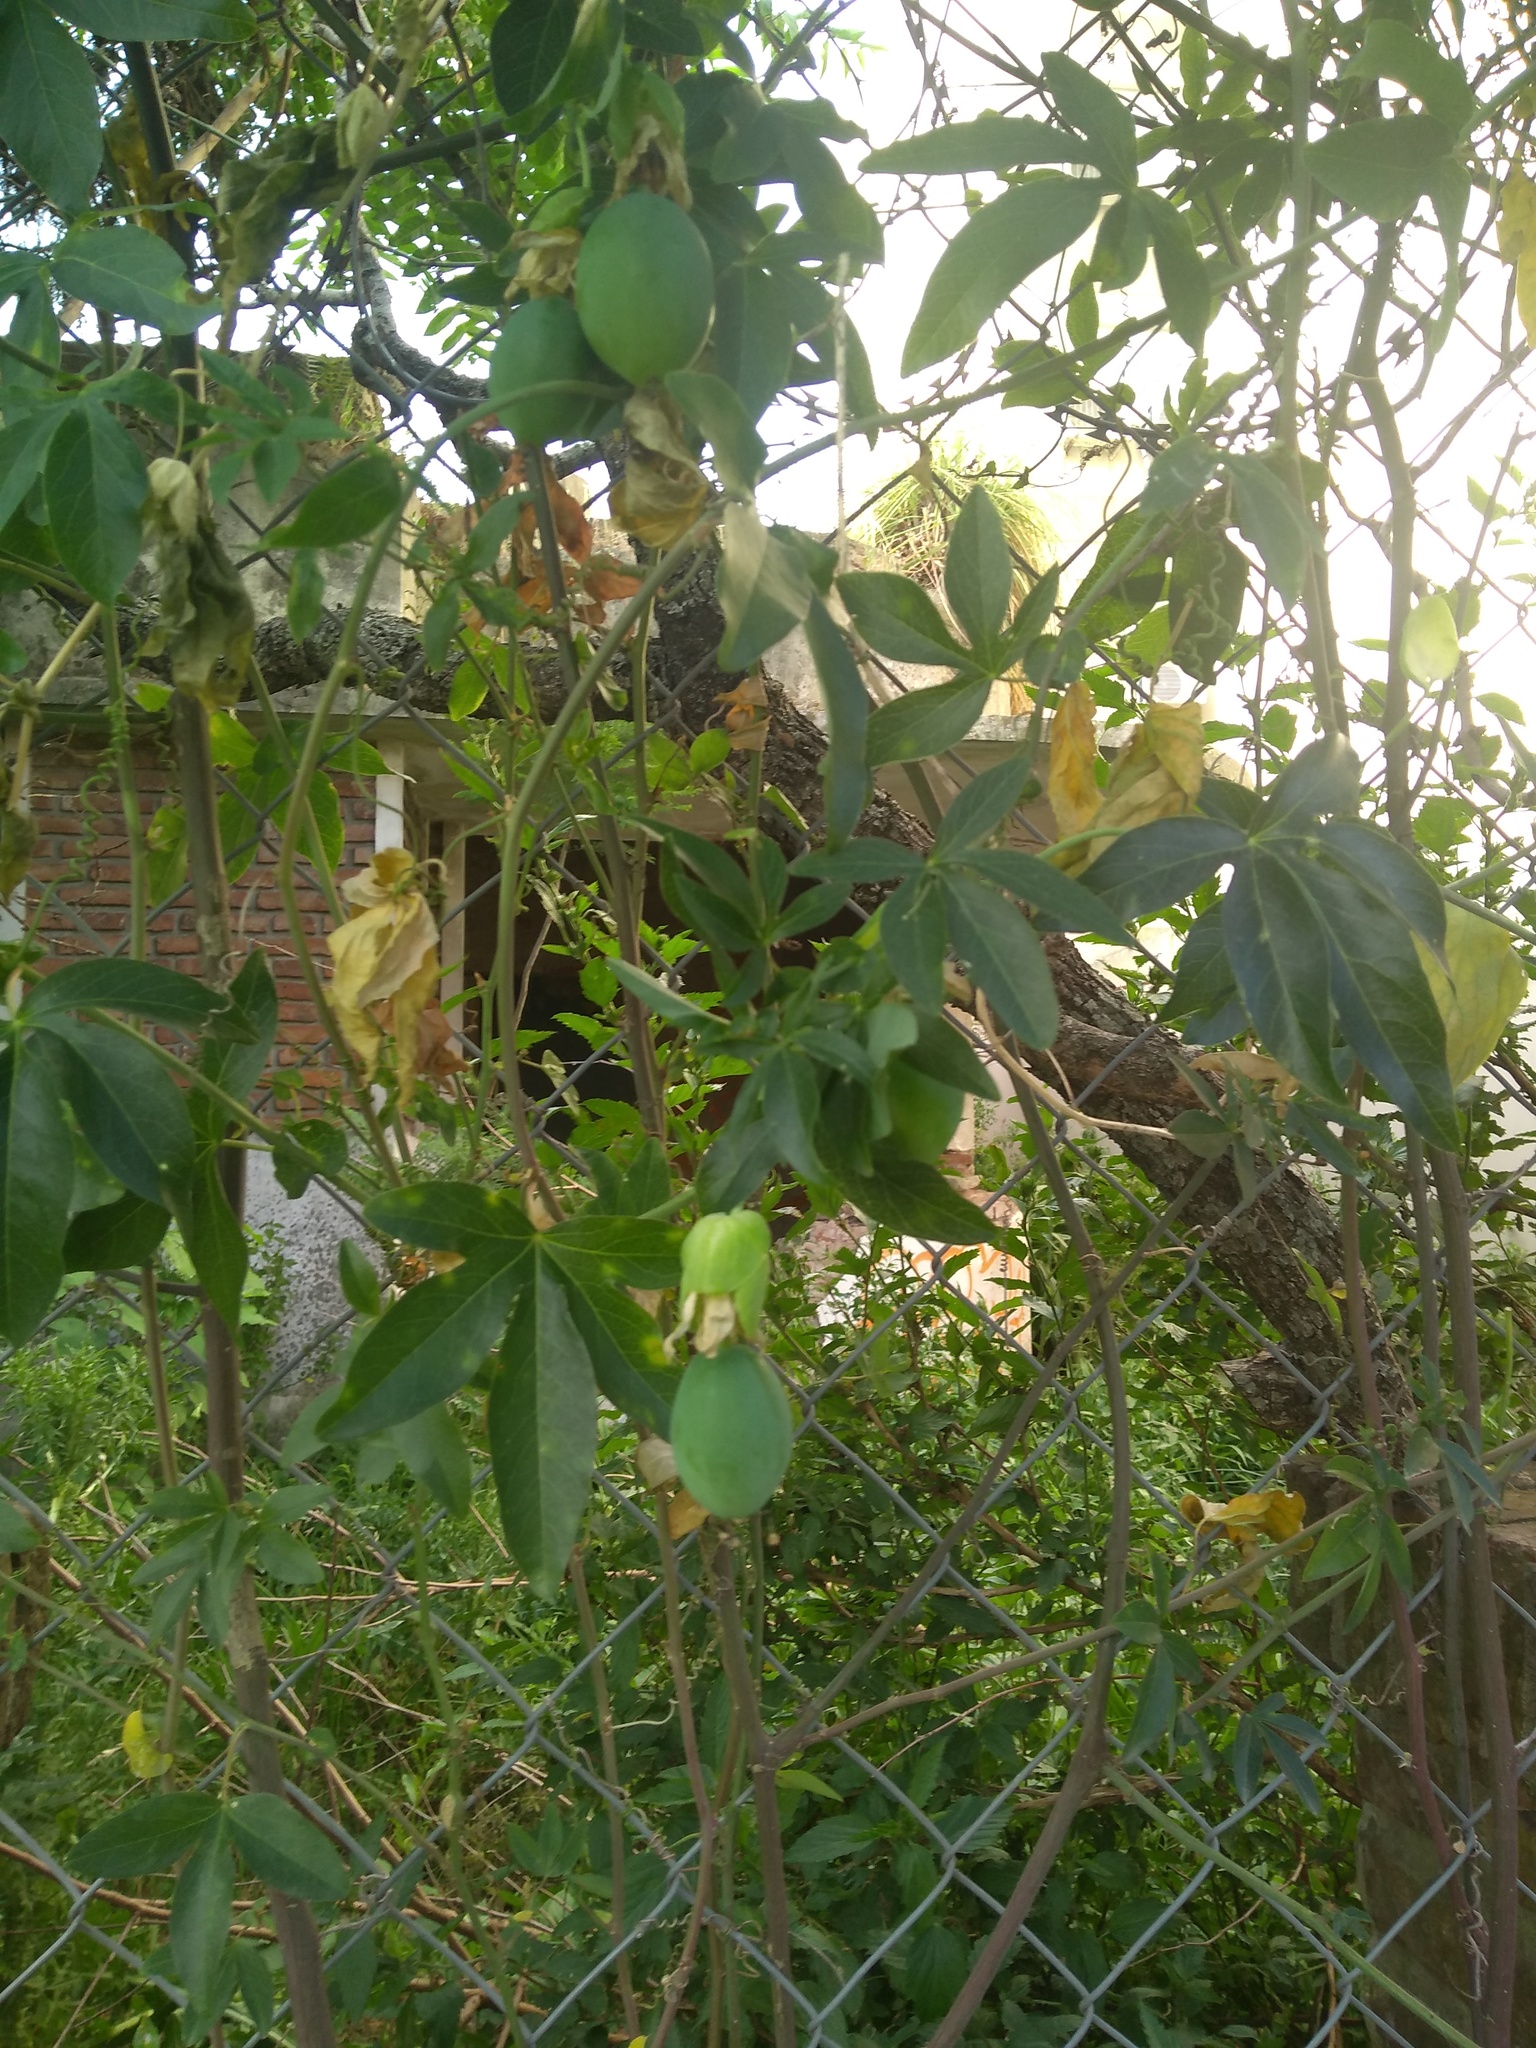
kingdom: Plantae
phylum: Tracheophyta
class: Magnoliopsida
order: Malpighiales
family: Passifloraceae
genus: Passiflora
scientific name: Passiflora caerulea
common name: Blue passionflower
